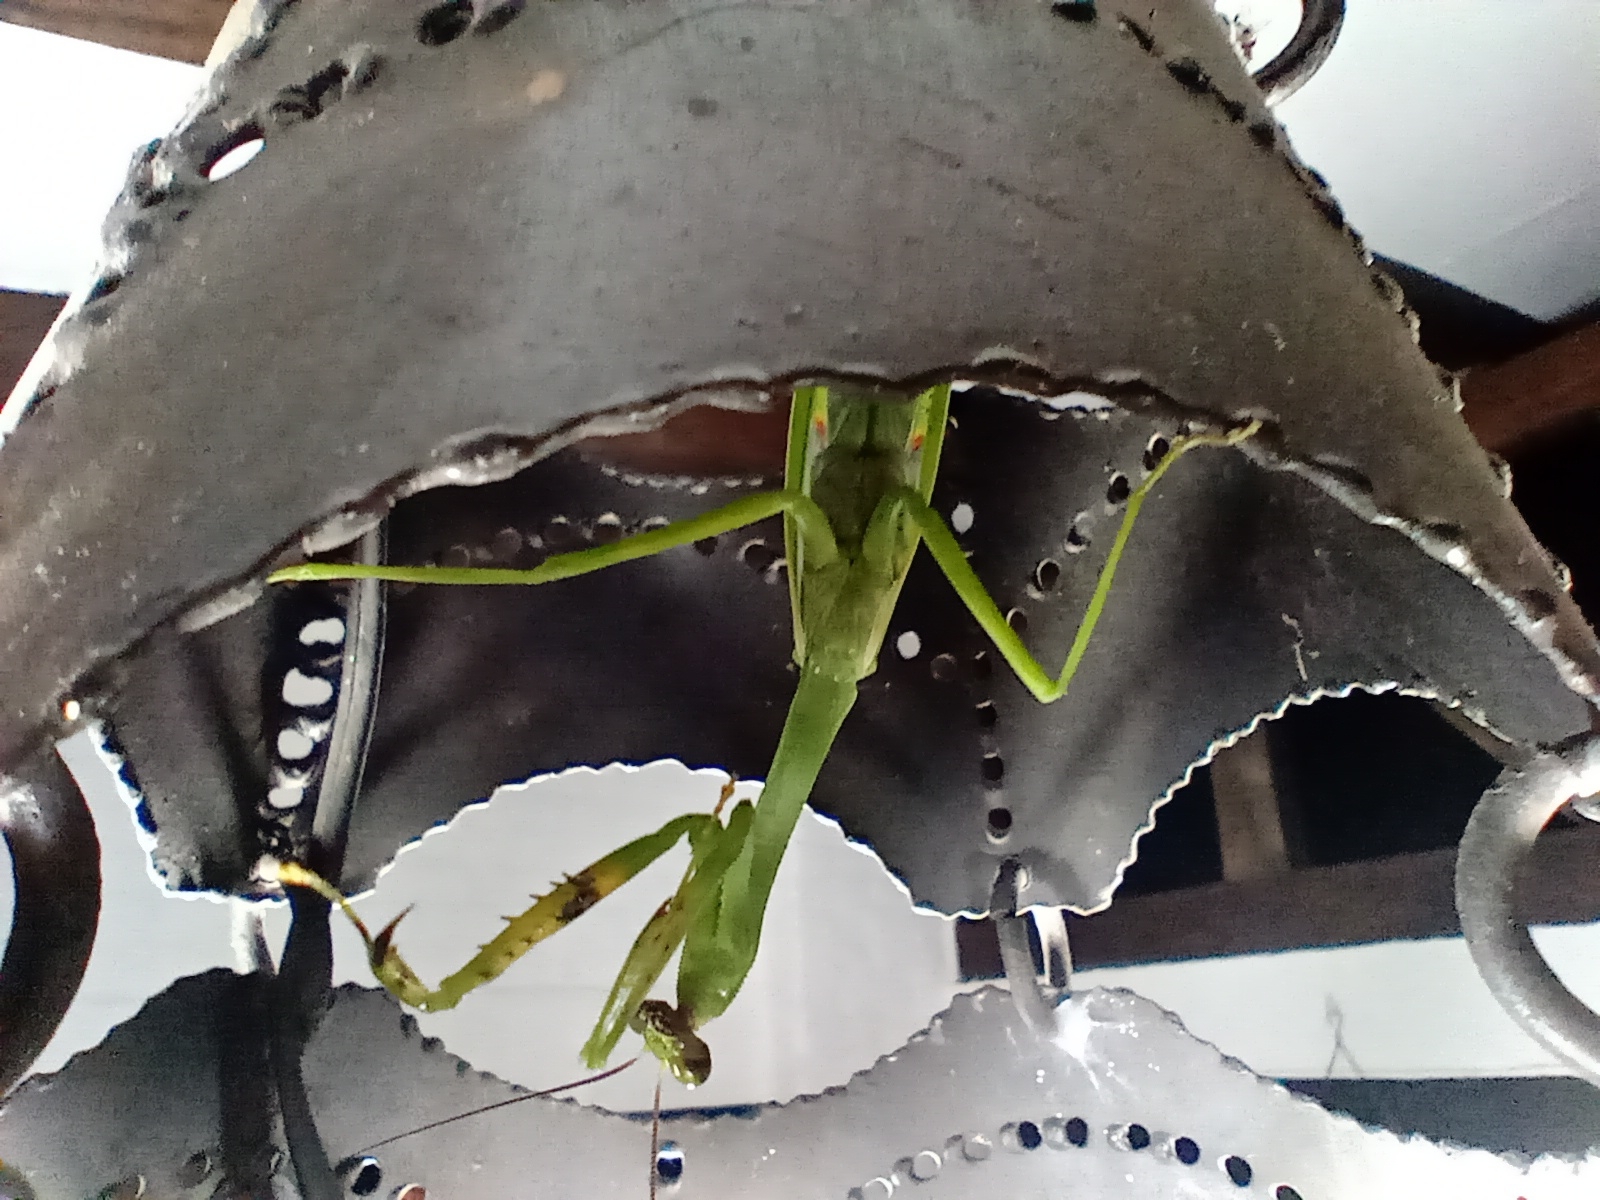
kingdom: Animalia
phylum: Arthropoda
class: Insecta
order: Mantodea
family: Mantidae
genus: Stagmatoptera
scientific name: Stagmatoptera septentrionalis
